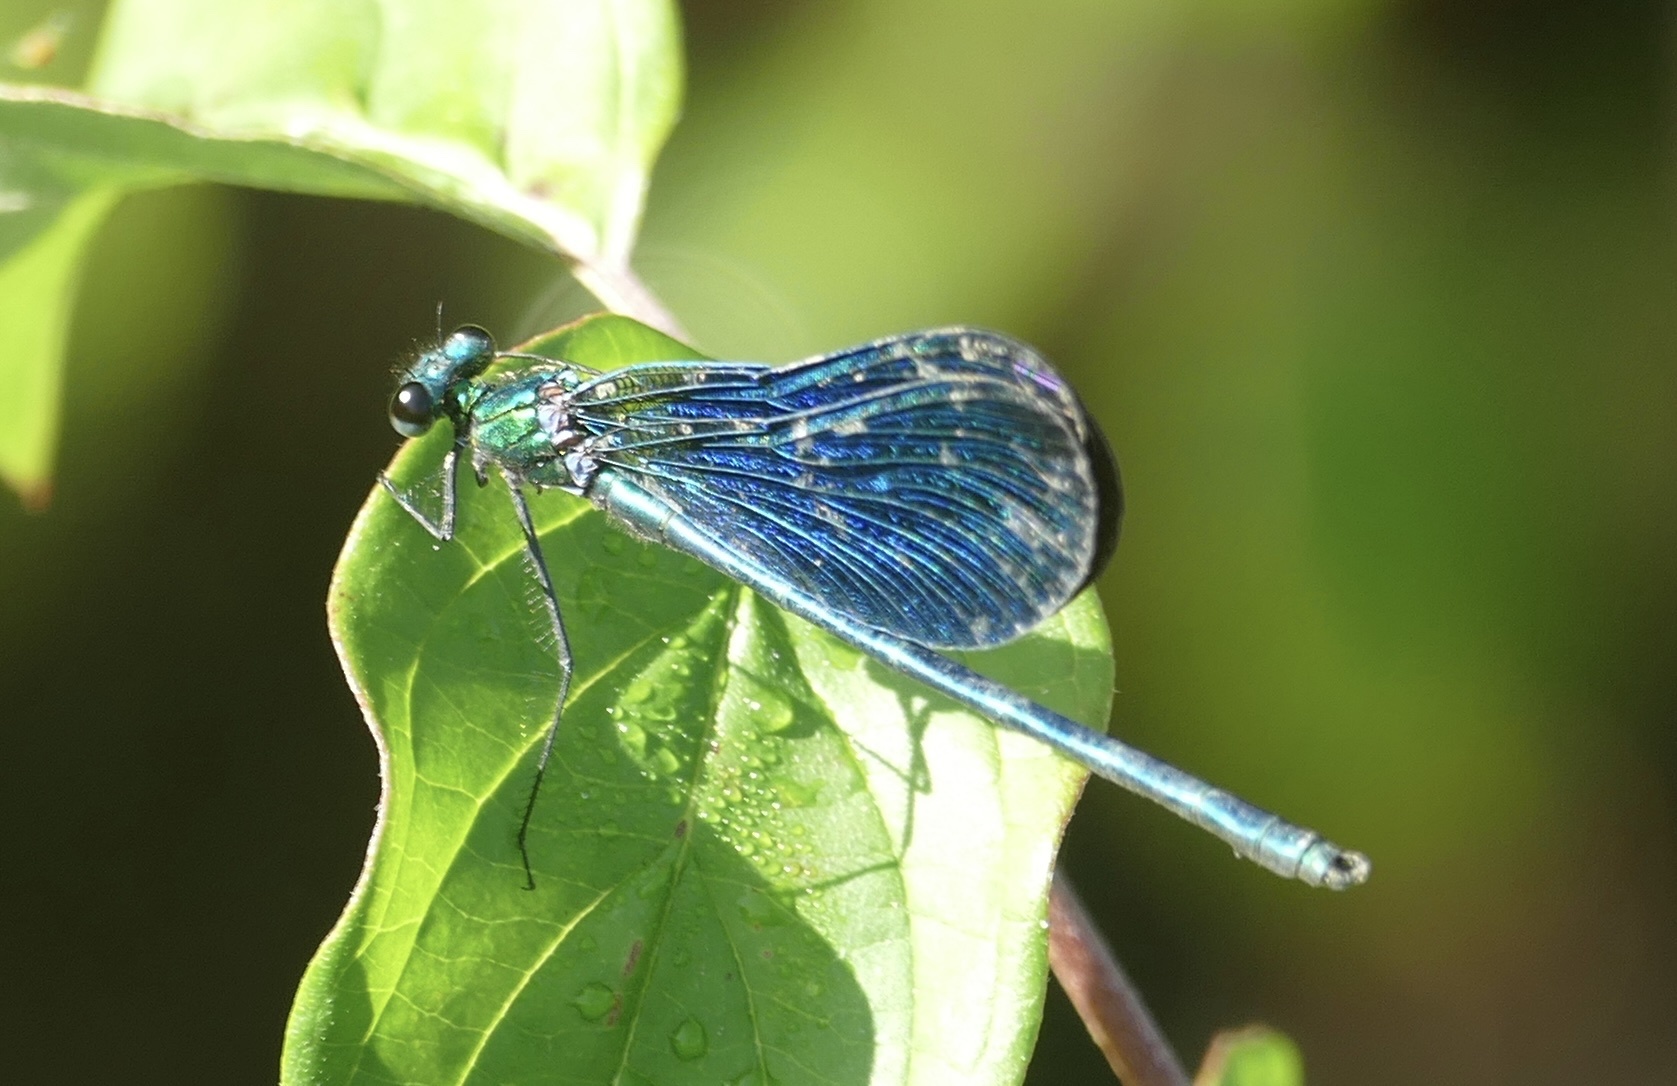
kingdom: Animalia
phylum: Arthropoda
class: Insecta
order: Odonata
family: Calopterygidae
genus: Calopteryx
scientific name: Calopteryx virgo
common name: Beautiful demoiselle
